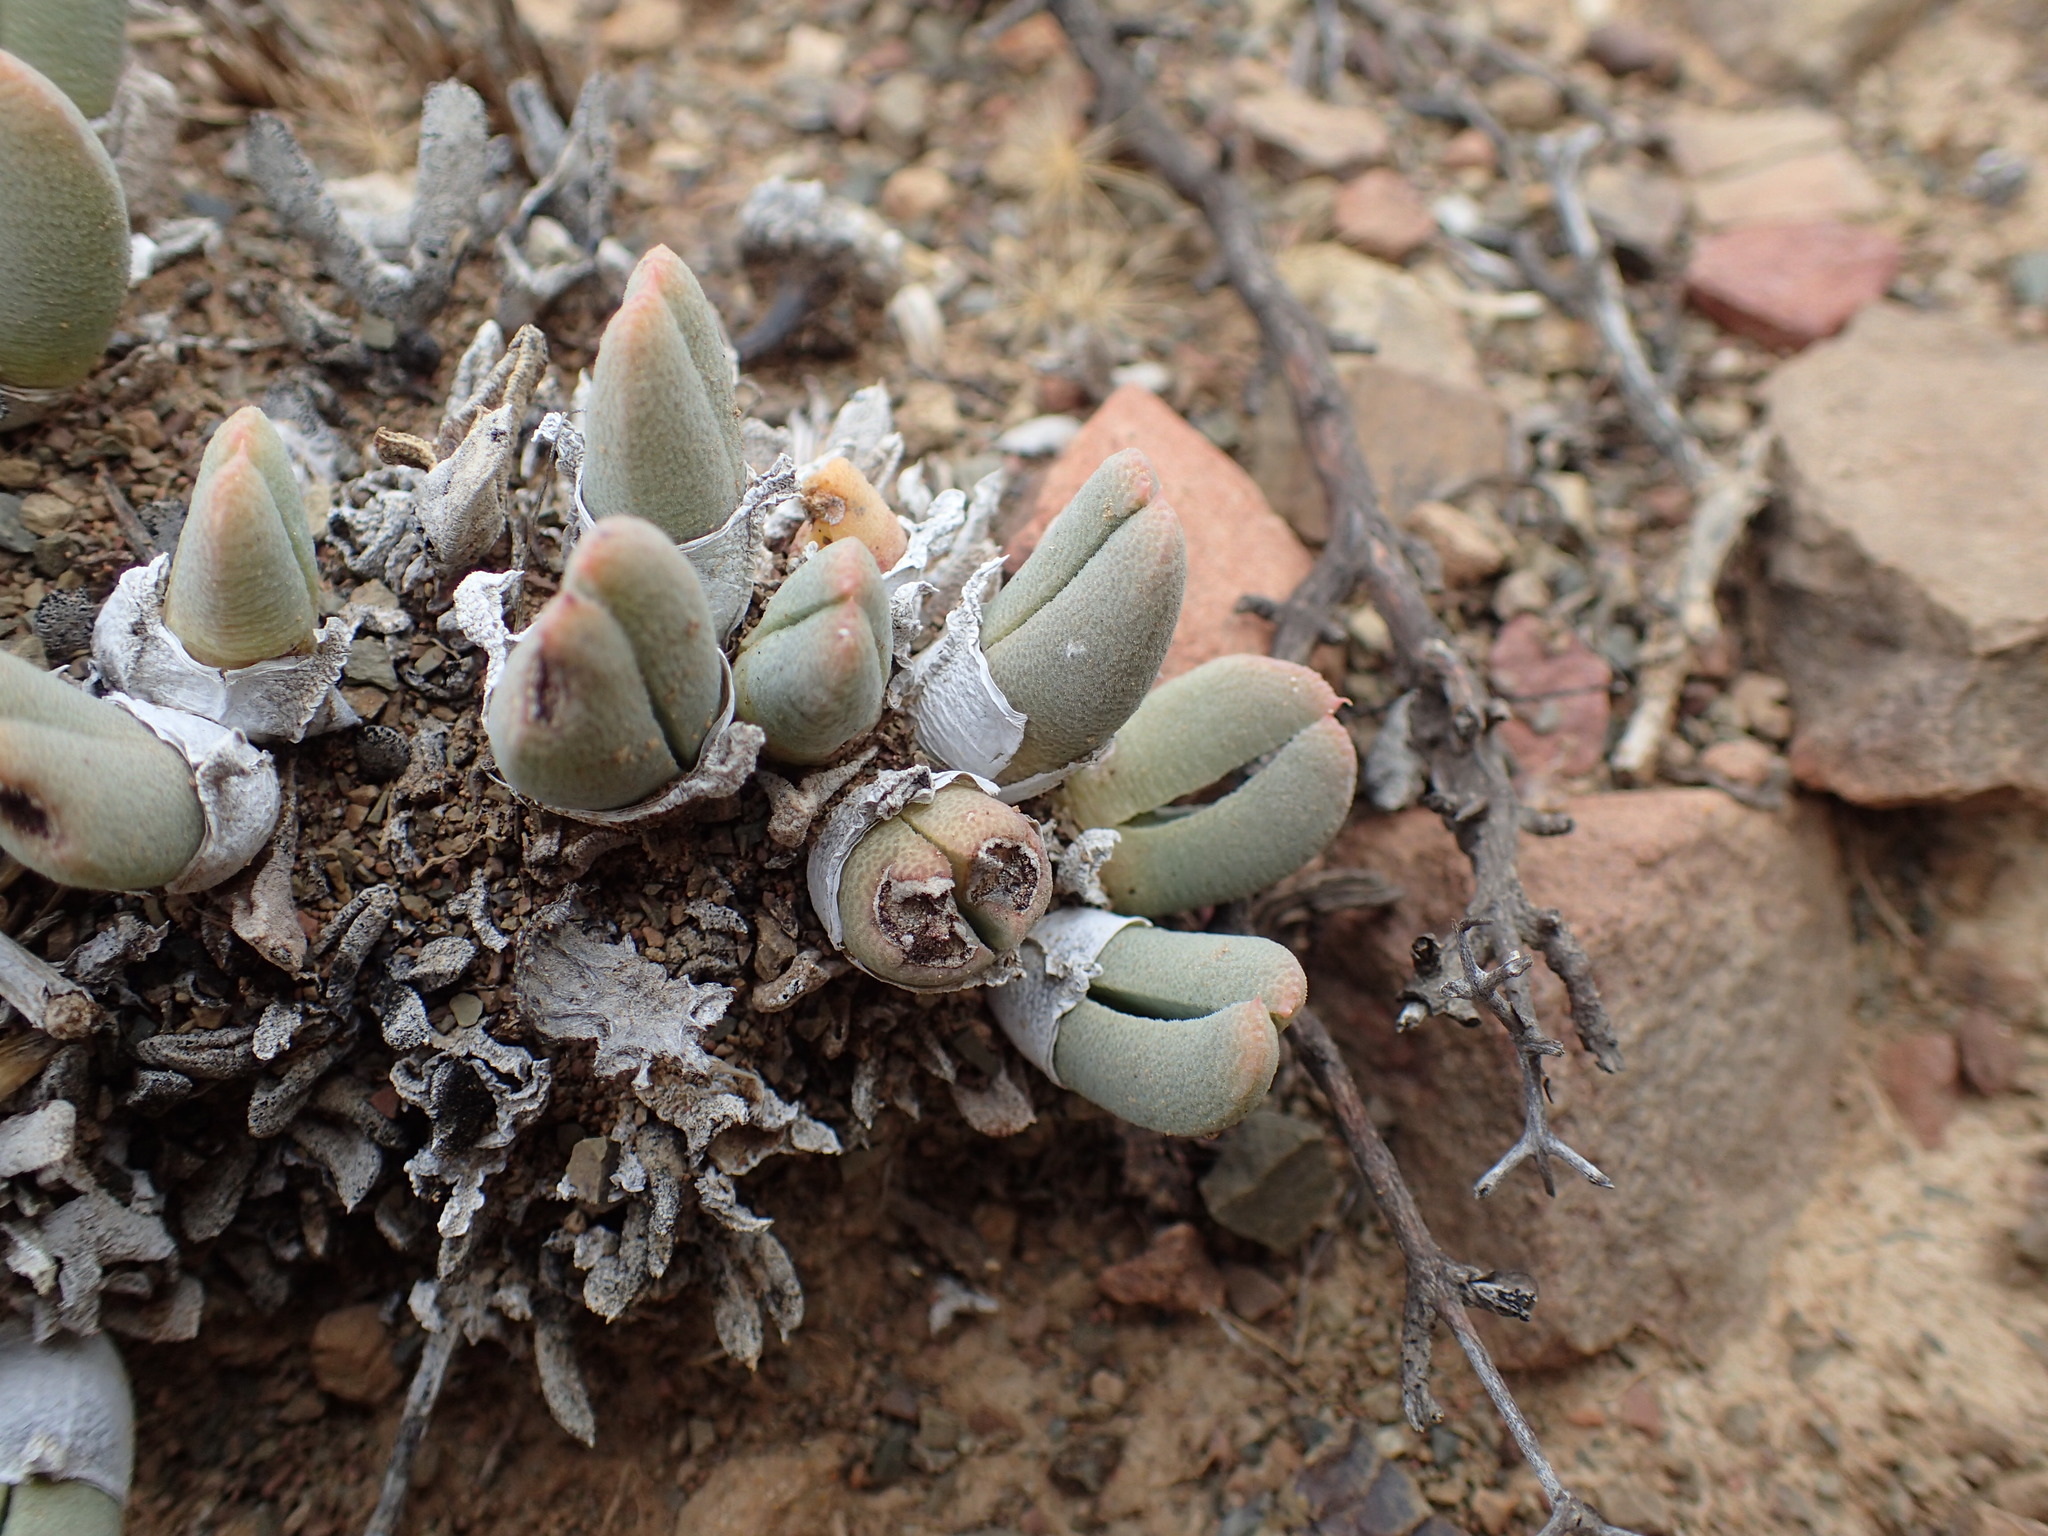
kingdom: Plantae
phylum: Tracheophyta
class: Magnoliopsida
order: Caryophyllales
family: Aizoaceae
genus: Cheiridopsis
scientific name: Cheiridopsis namaquensis
